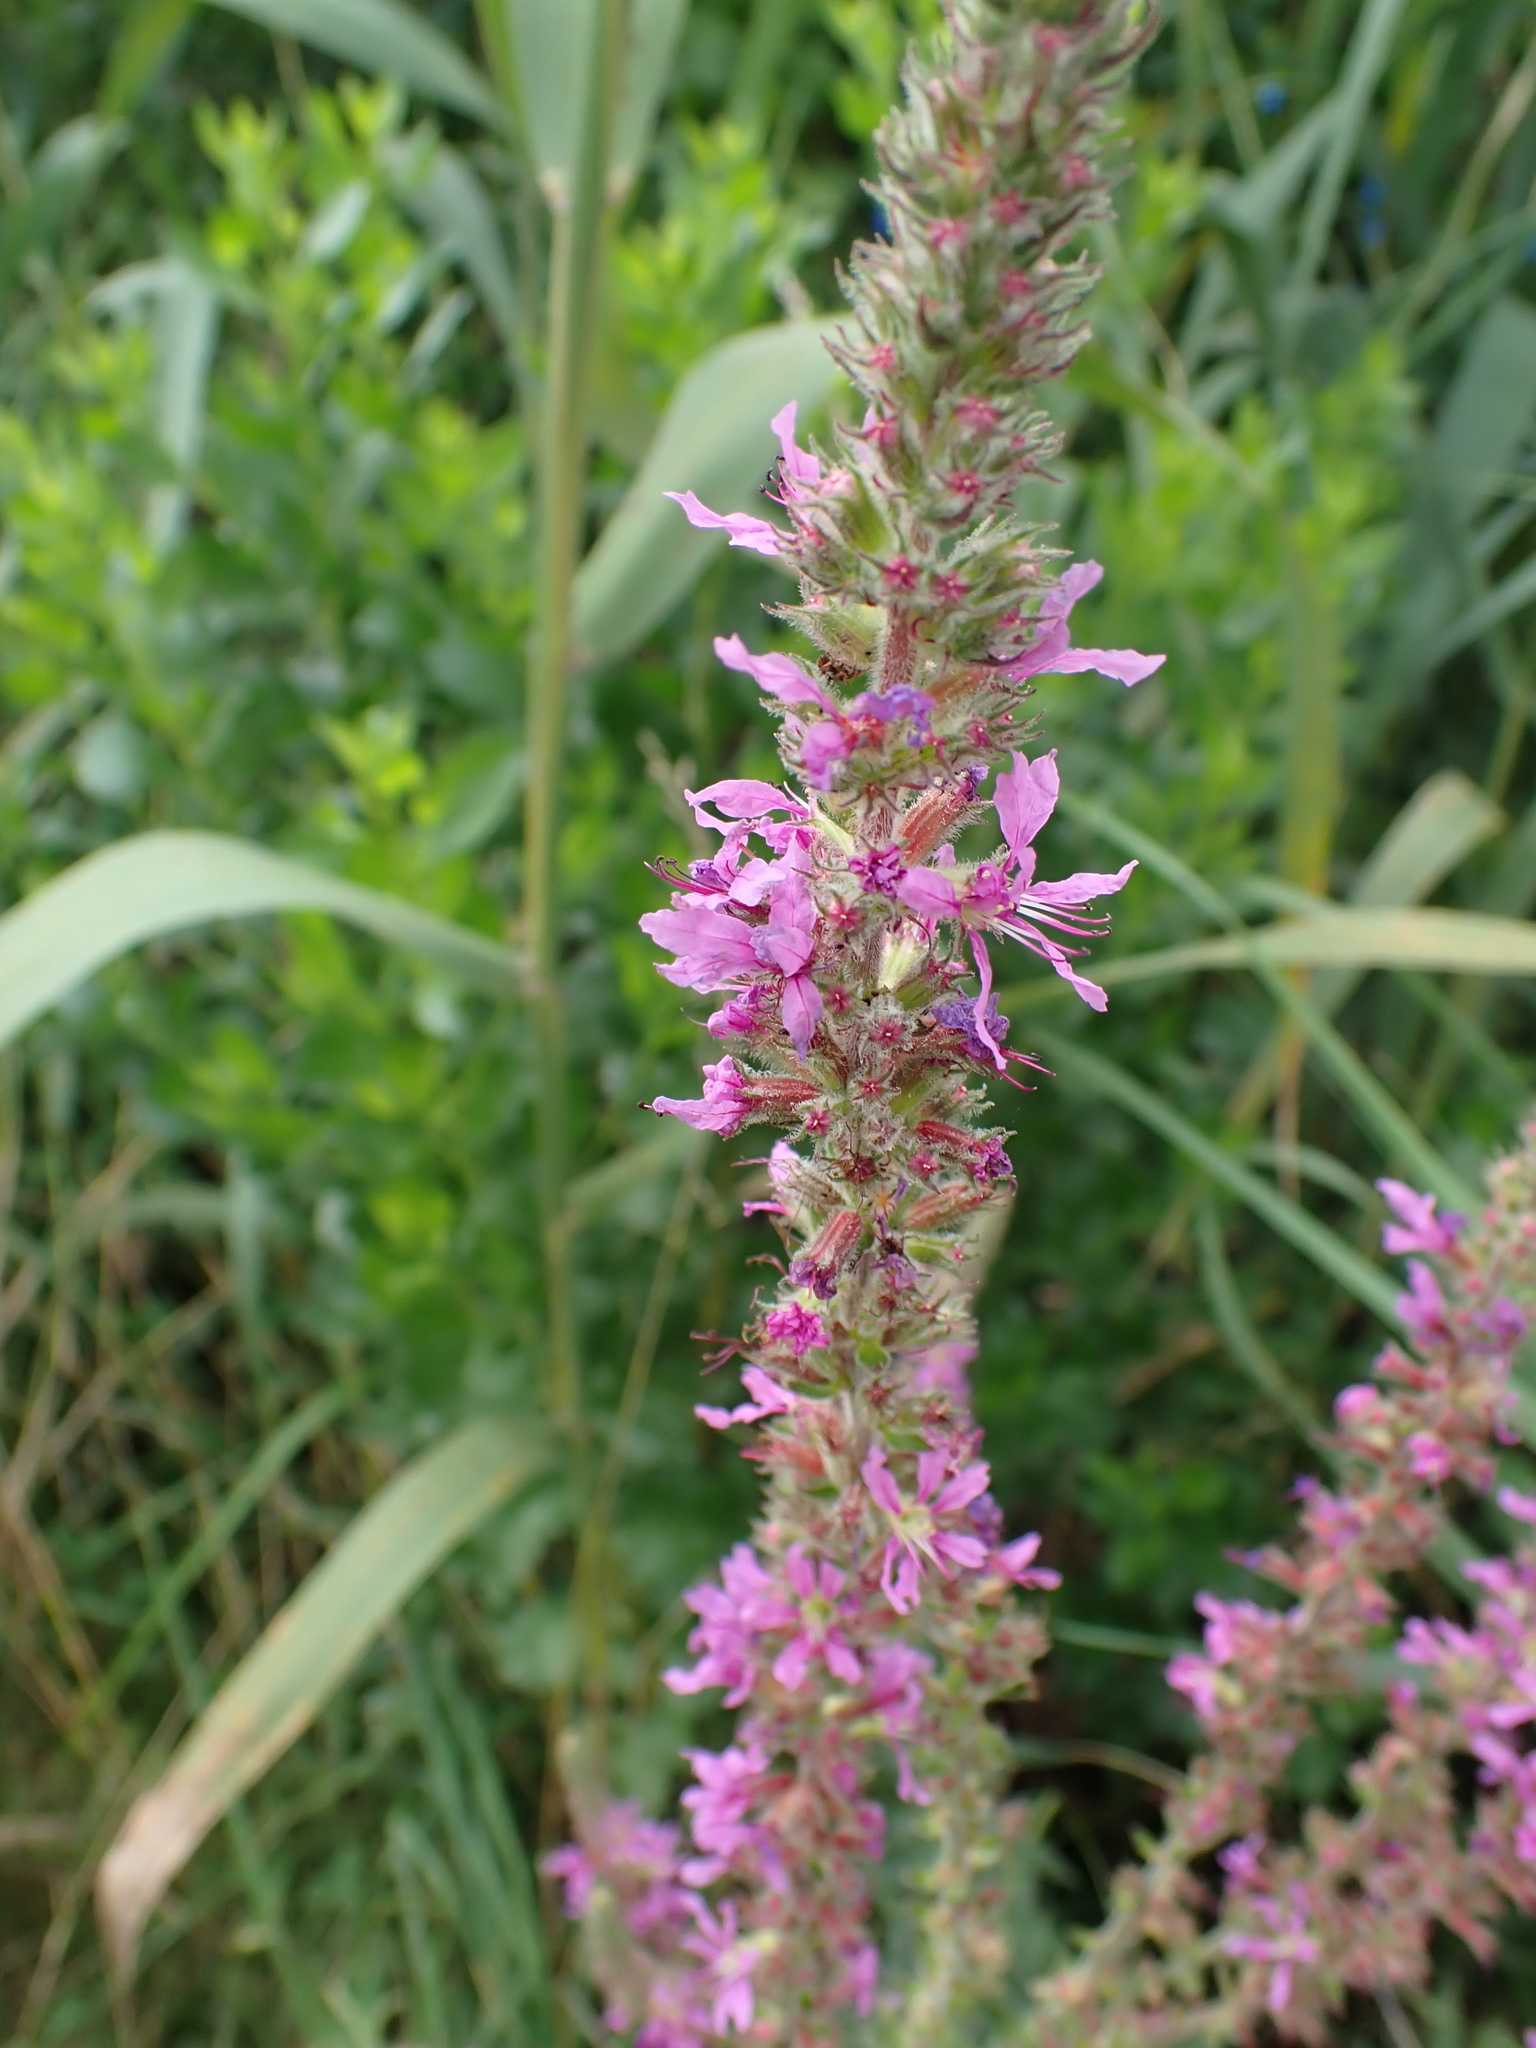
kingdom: Plantae
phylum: Tracheophyta
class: Magnoliopsida
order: Myrtales
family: Lythraceae
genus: Lythrum
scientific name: Lythrum salicaria
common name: Purple loosestrife
